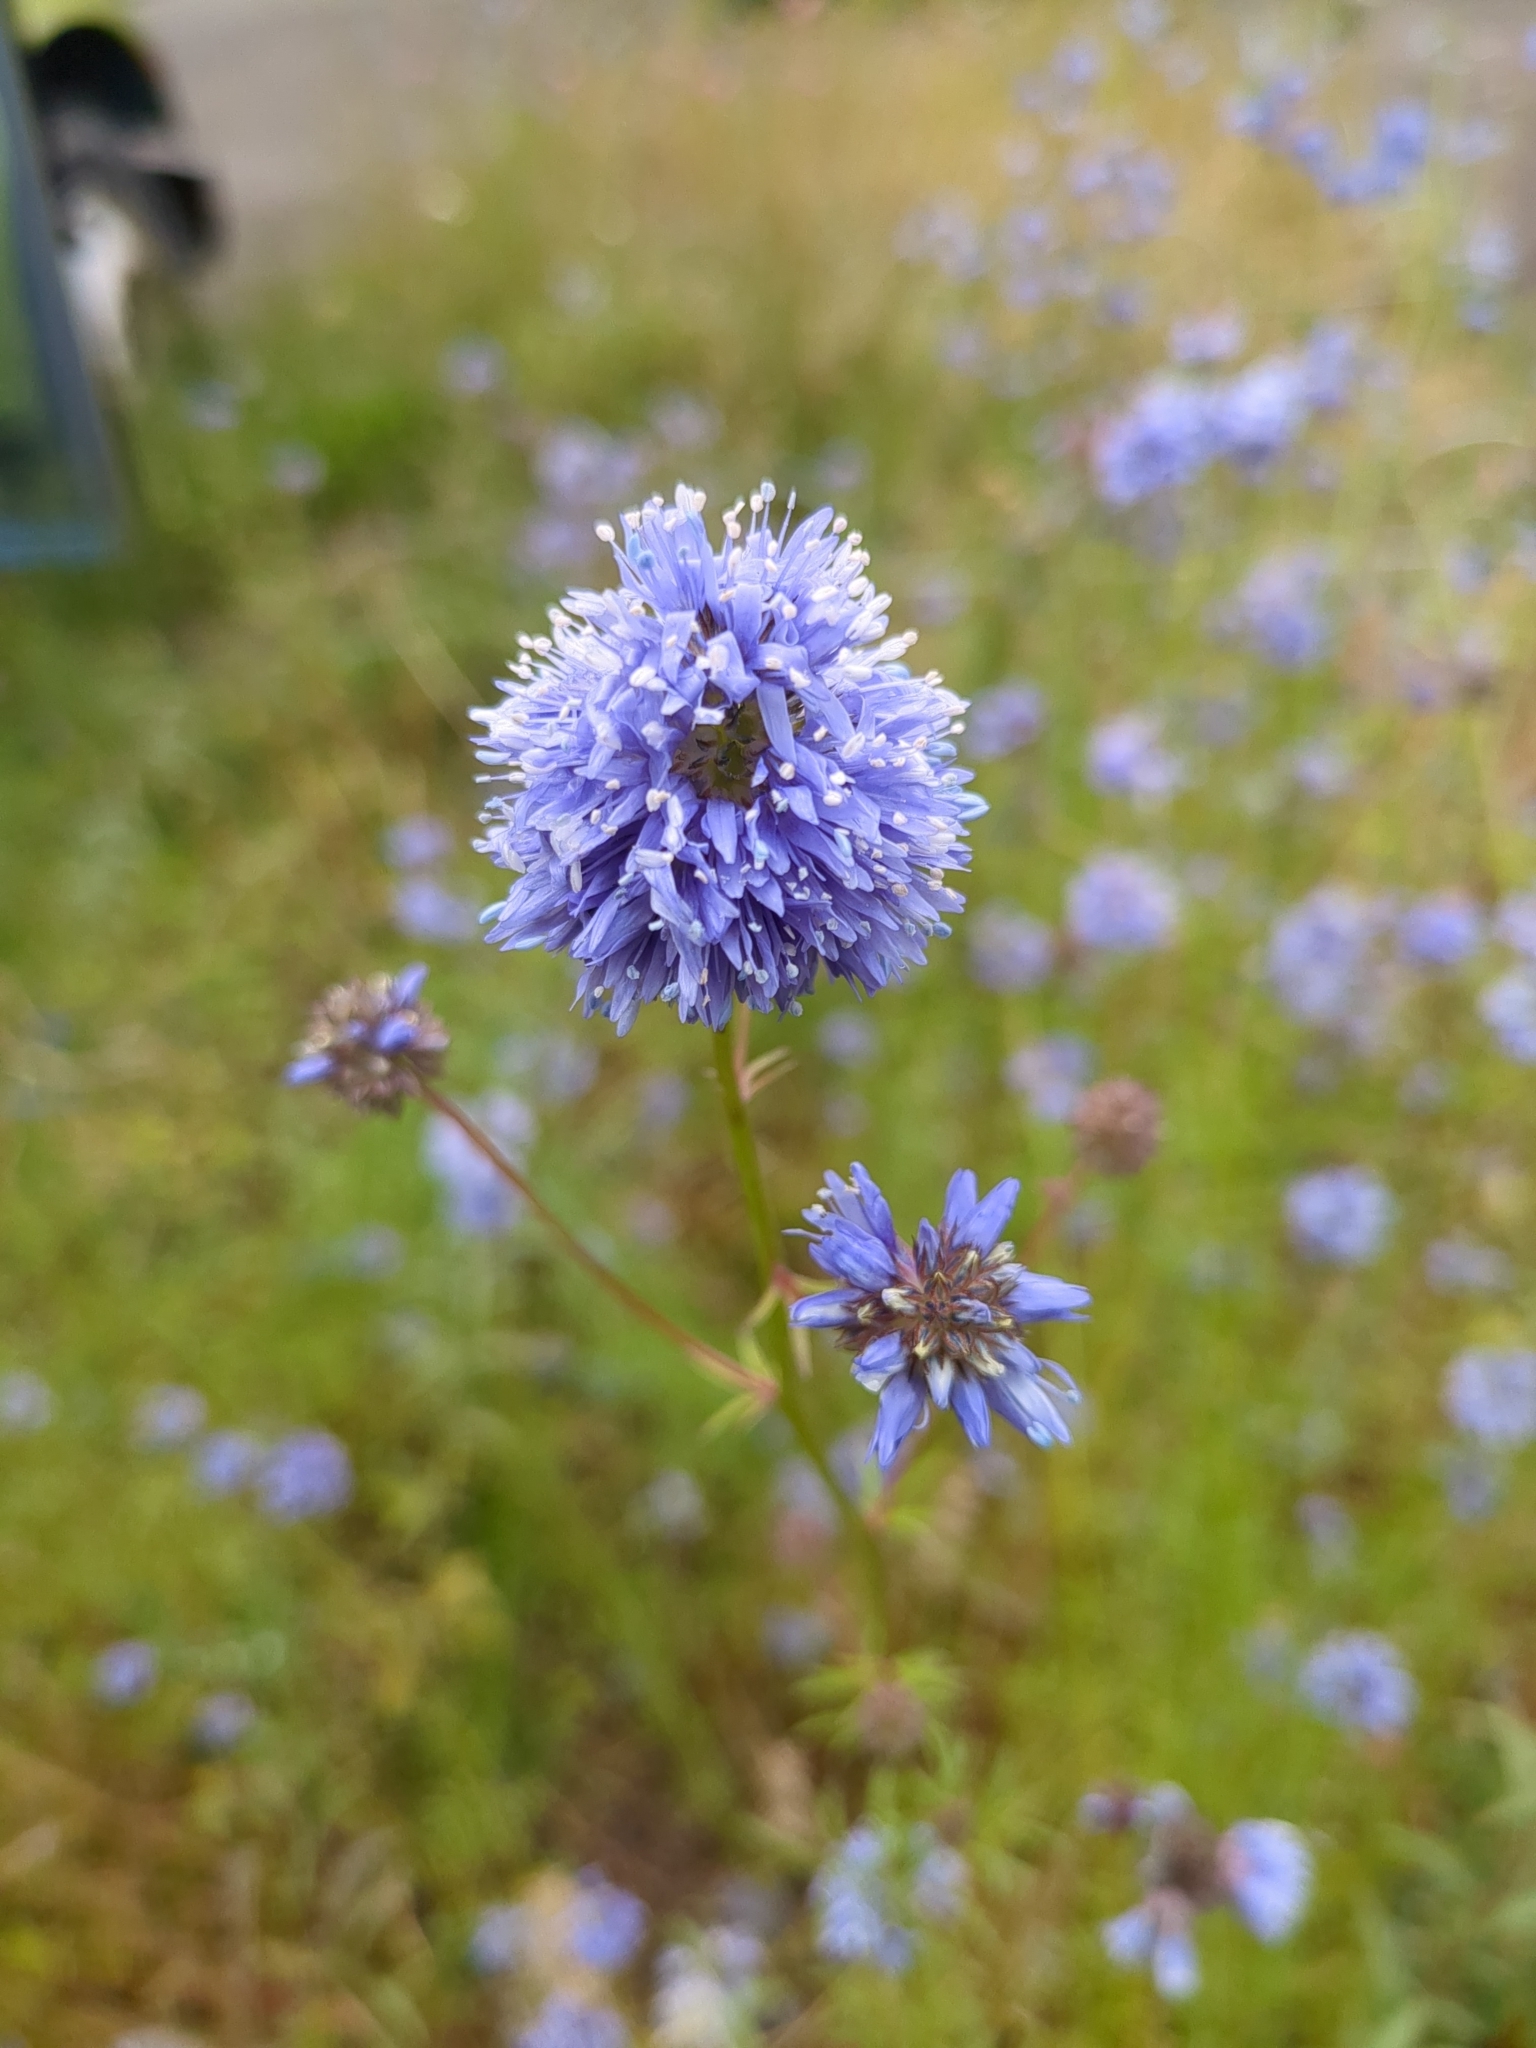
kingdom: Plantae
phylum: Tracheophyta
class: Magnoliopsida
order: Ericales
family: Polemoniaceae
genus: Gilia
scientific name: Gilia capitata
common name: Bluehead gilia
